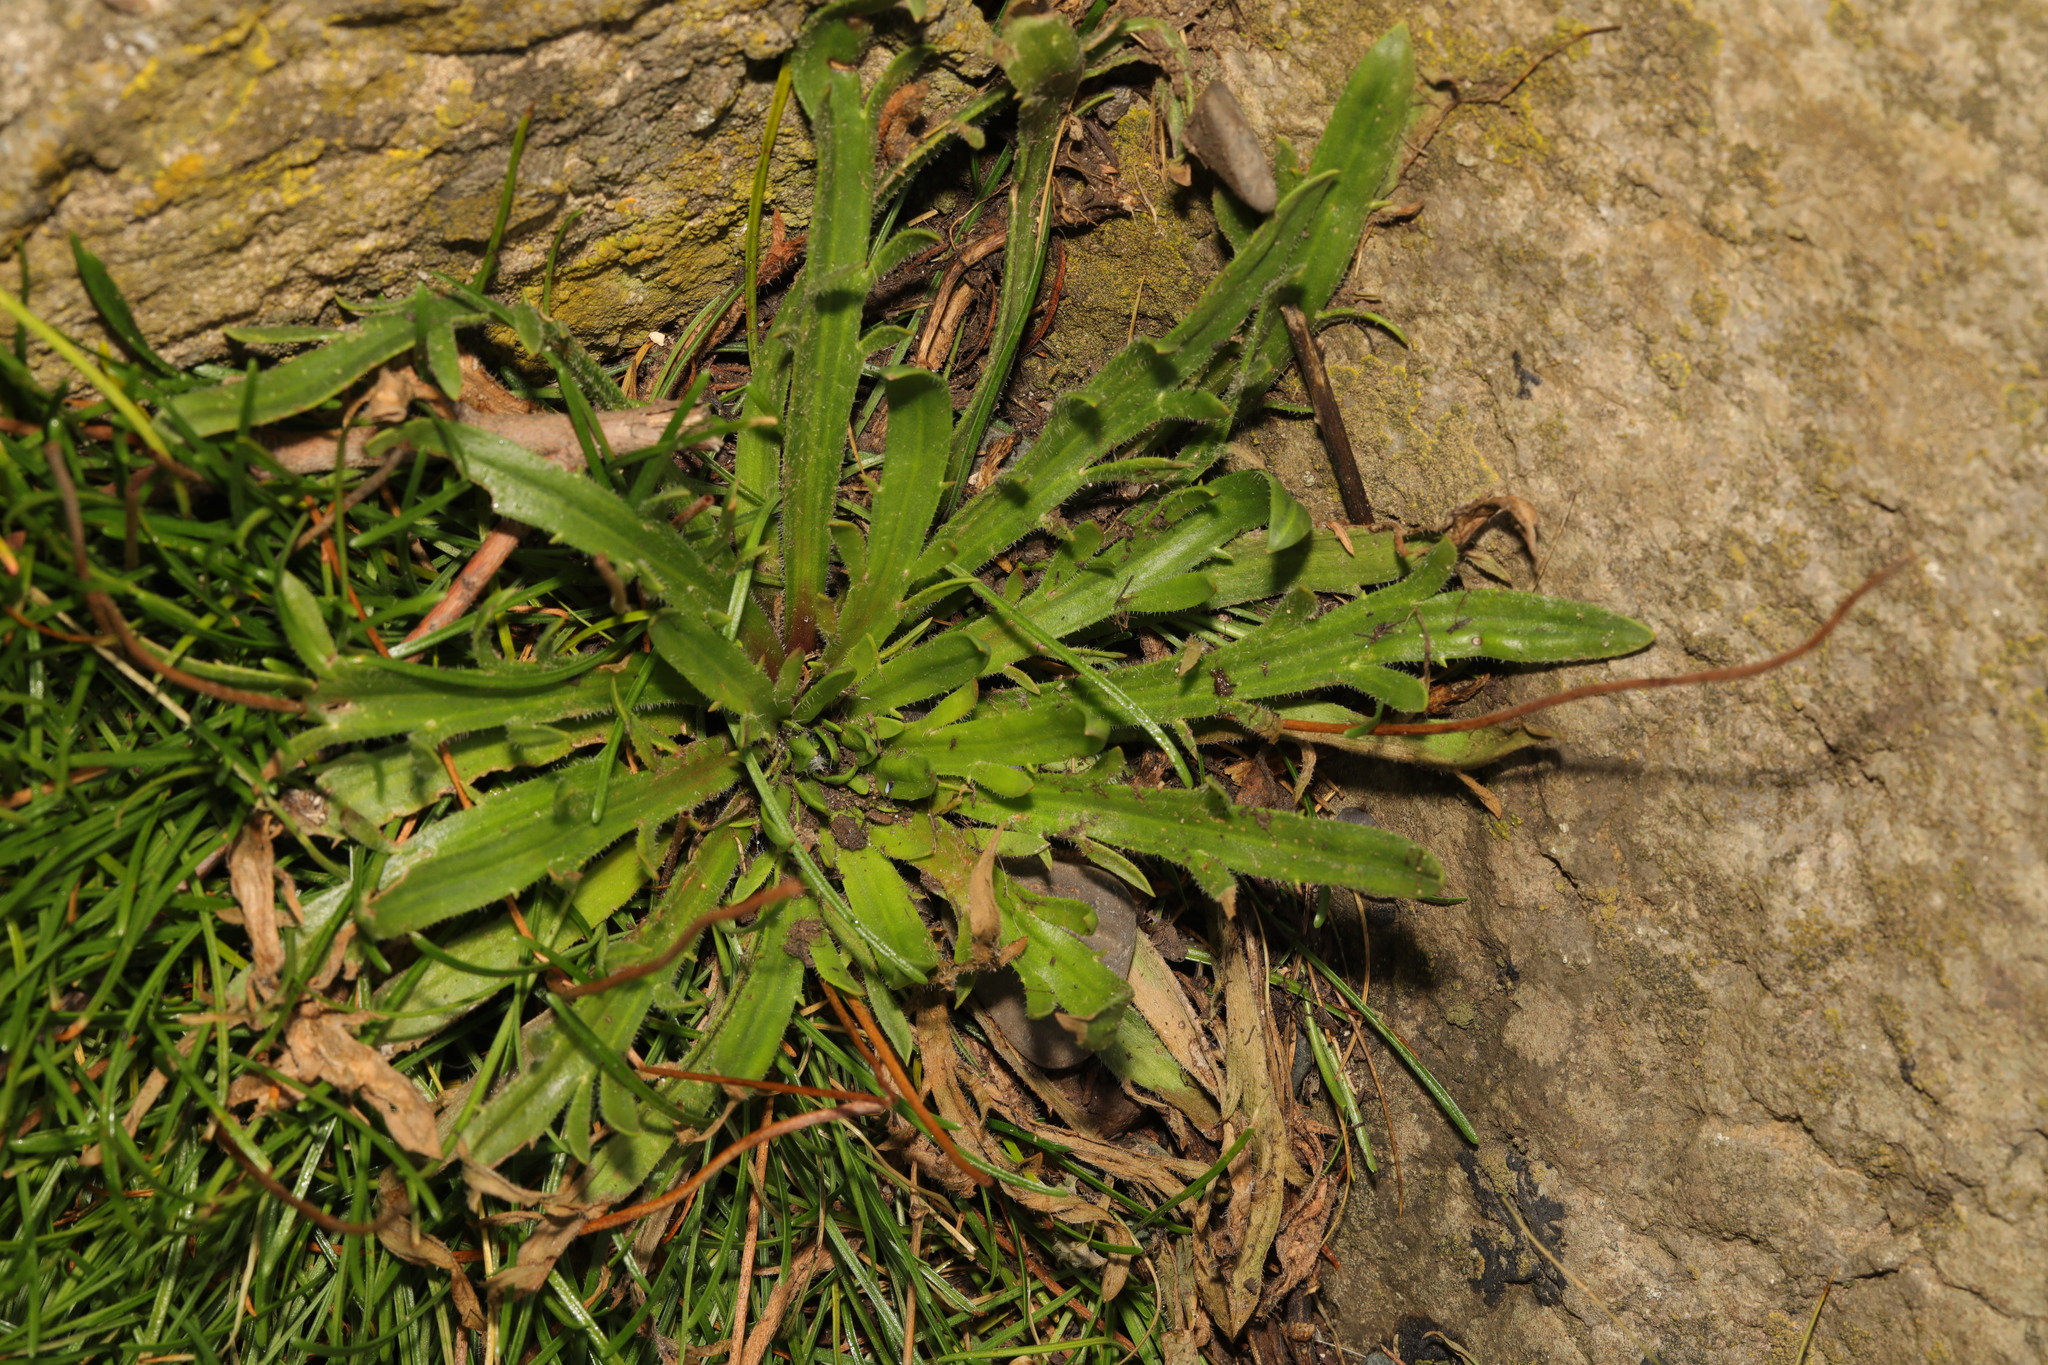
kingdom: Plantae
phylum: Tracheophyta
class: Magnoliopsida
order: Lamiales
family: Plantaginaceae
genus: Plantago
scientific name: Plantago coronopus
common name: Buck's-horn plantain
